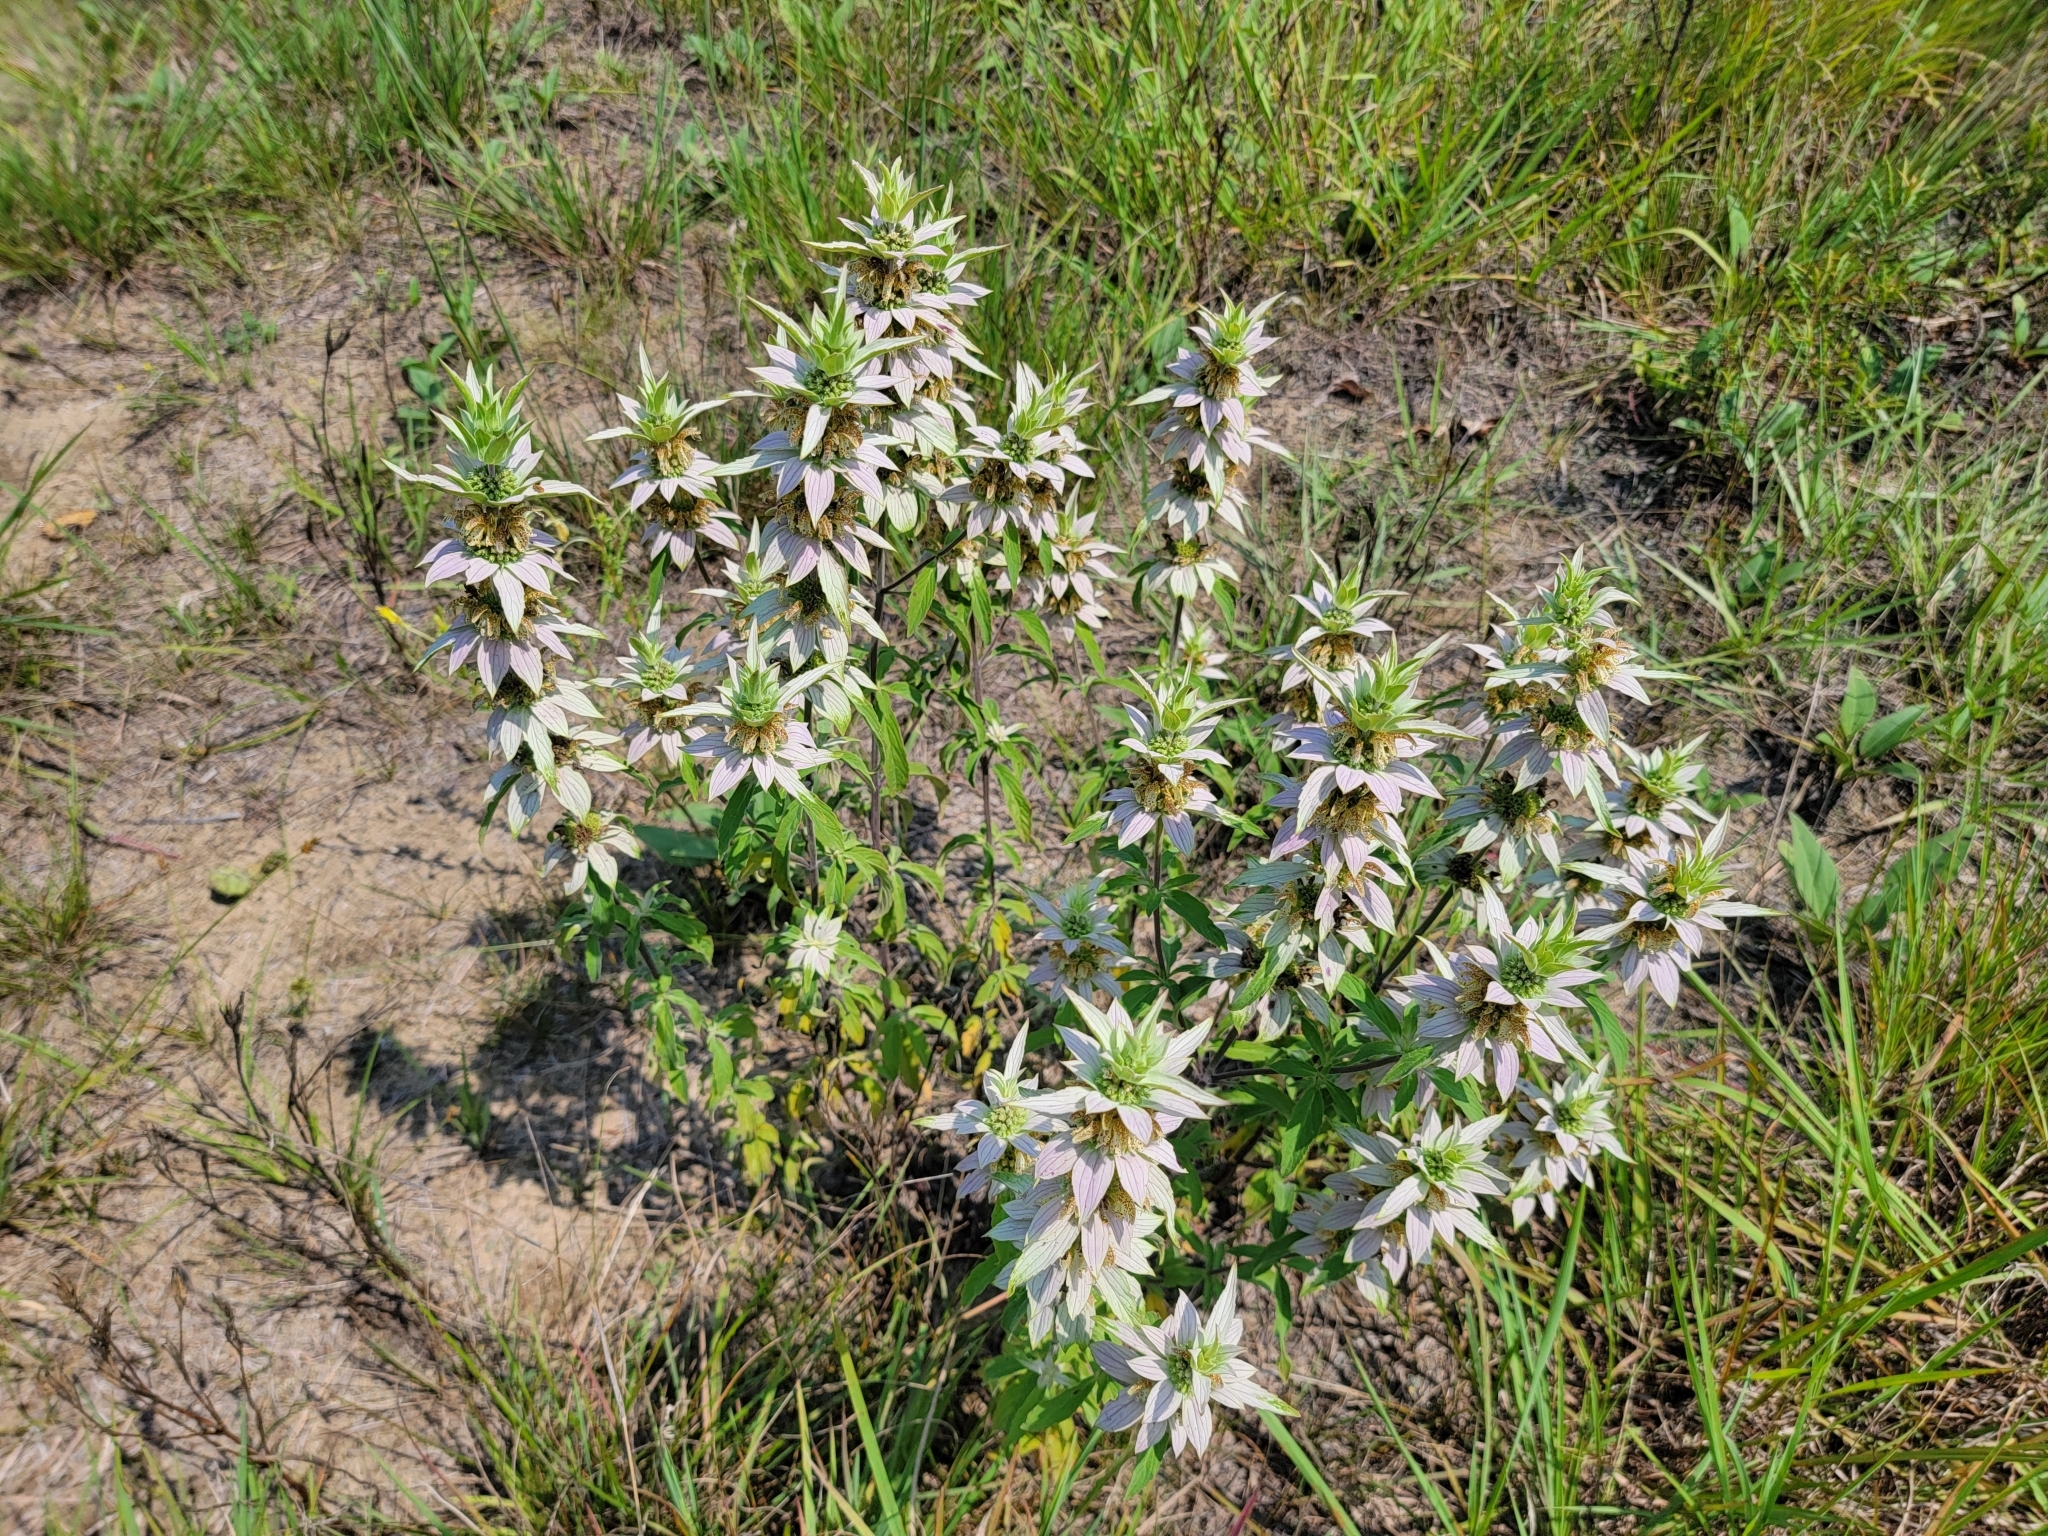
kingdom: Plantae
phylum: Tracheophyta
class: Magnoliopsida
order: Lamiales
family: Lamiaceae
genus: Monarda
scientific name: Monarda punctata
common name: Dotted monarda
